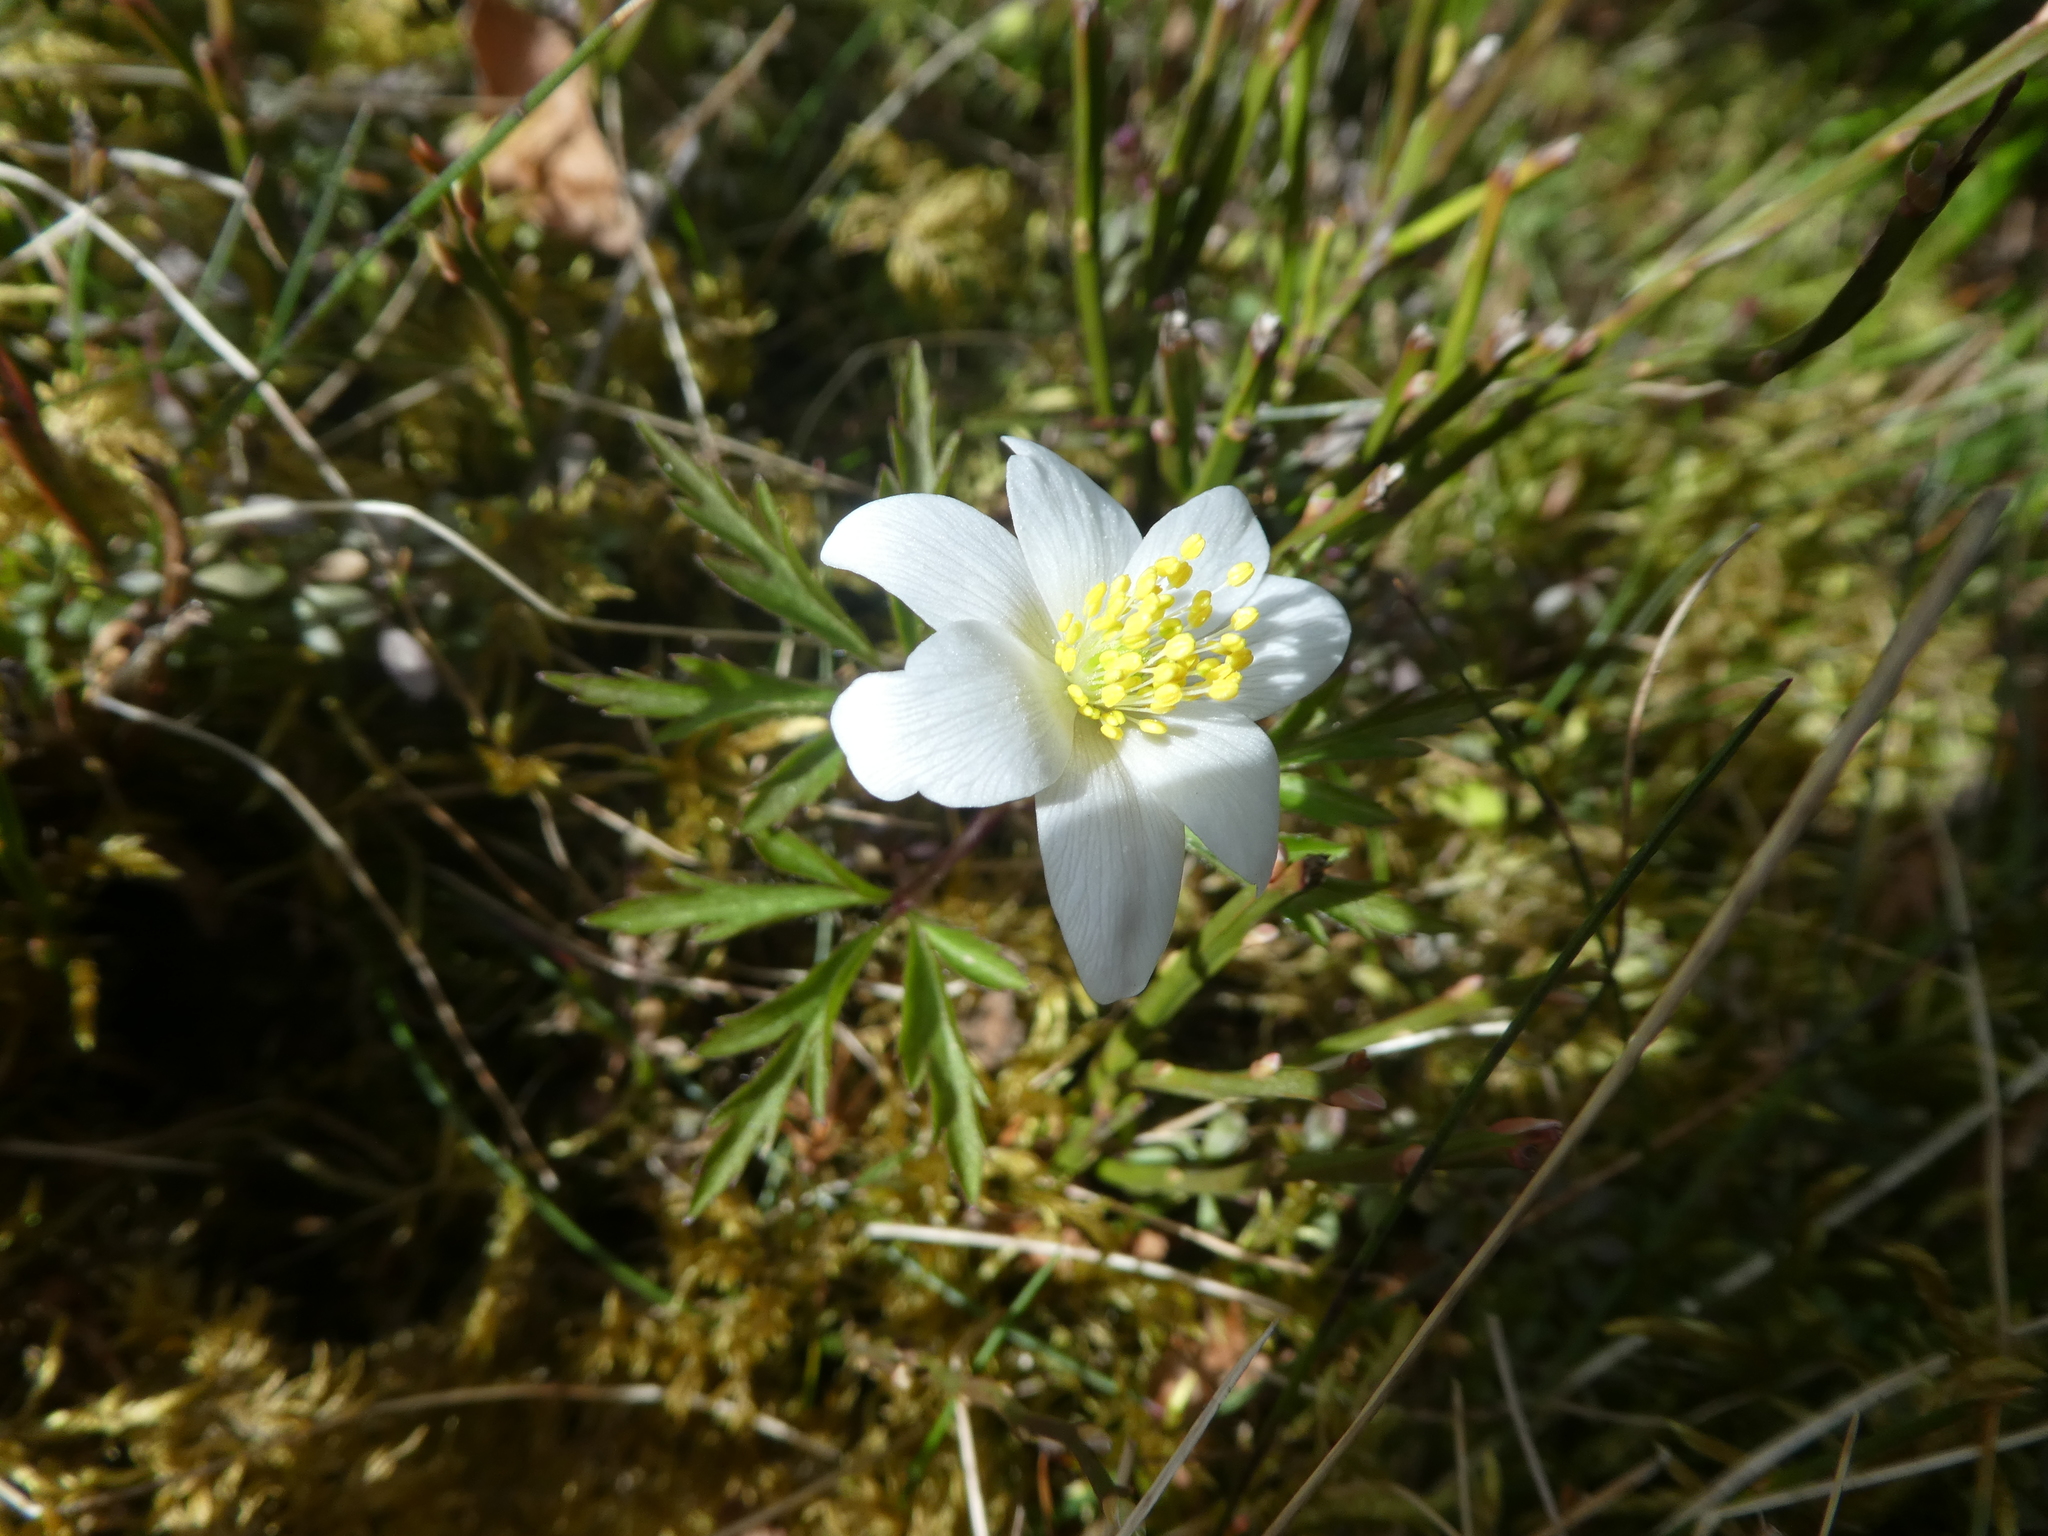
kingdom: Plantae
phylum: Tracheophyta
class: Magnoliopsida
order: Ranunculales
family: Ranunculaceae
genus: Anemone
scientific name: Anemone nemorosa
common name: Wood anemone
